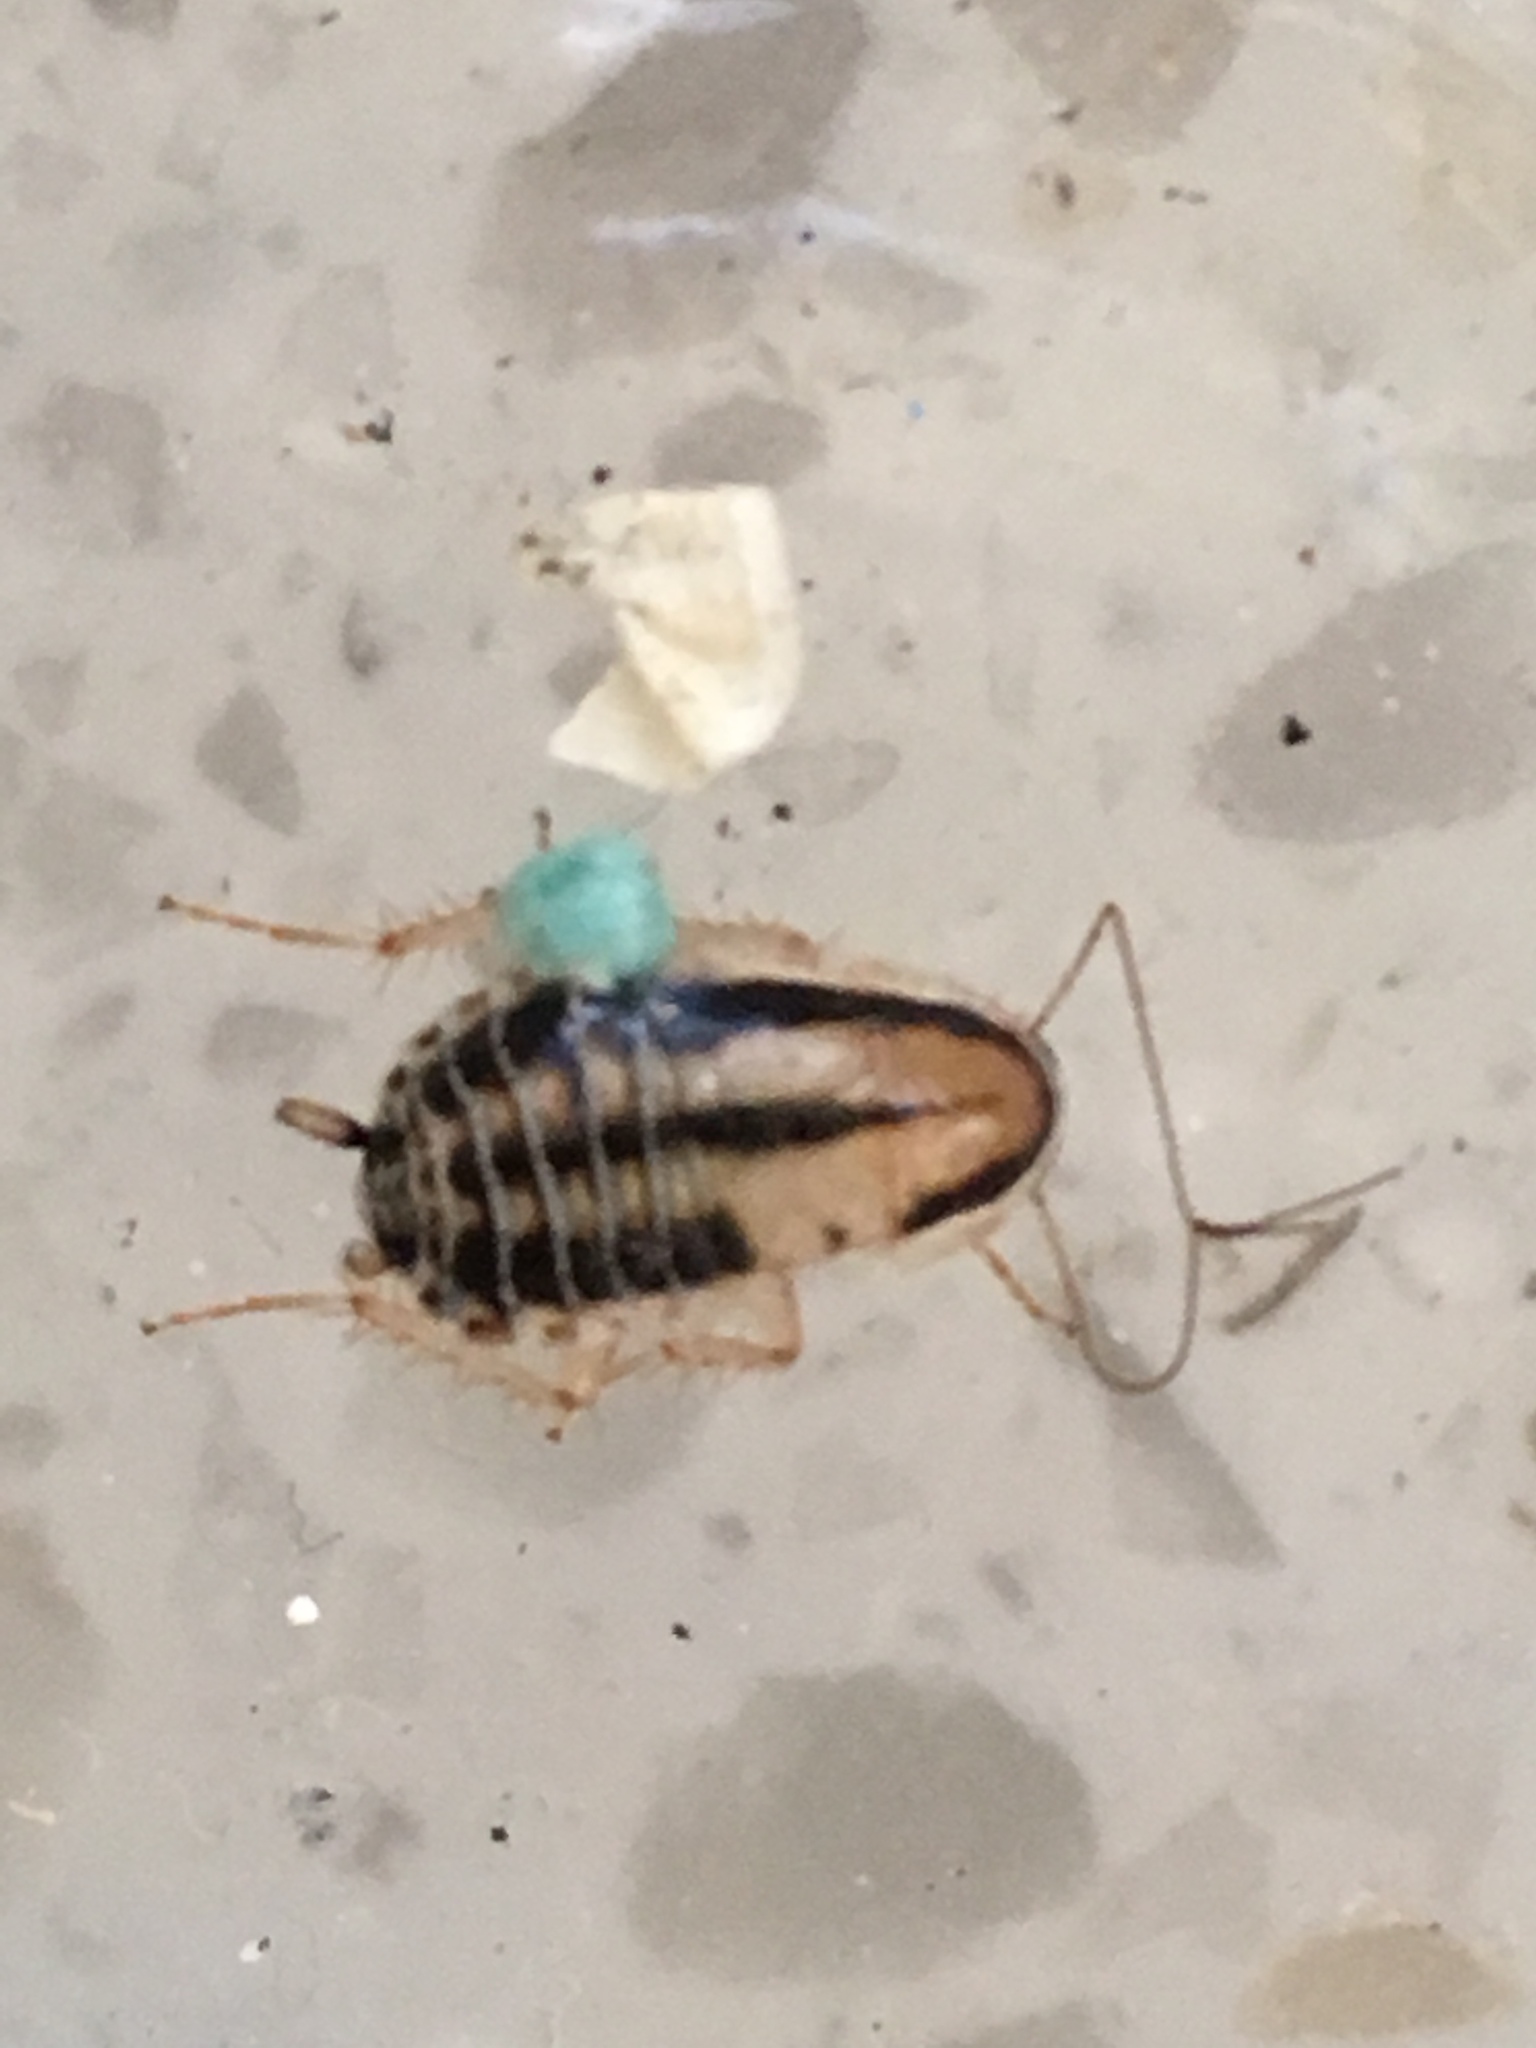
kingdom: Animalia
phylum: Arthropoda
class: Insecta
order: Blattodea
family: Ectobiidae
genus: Luridiblatta
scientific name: Luridiblatta trivittata
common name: Three-lined cockroach
